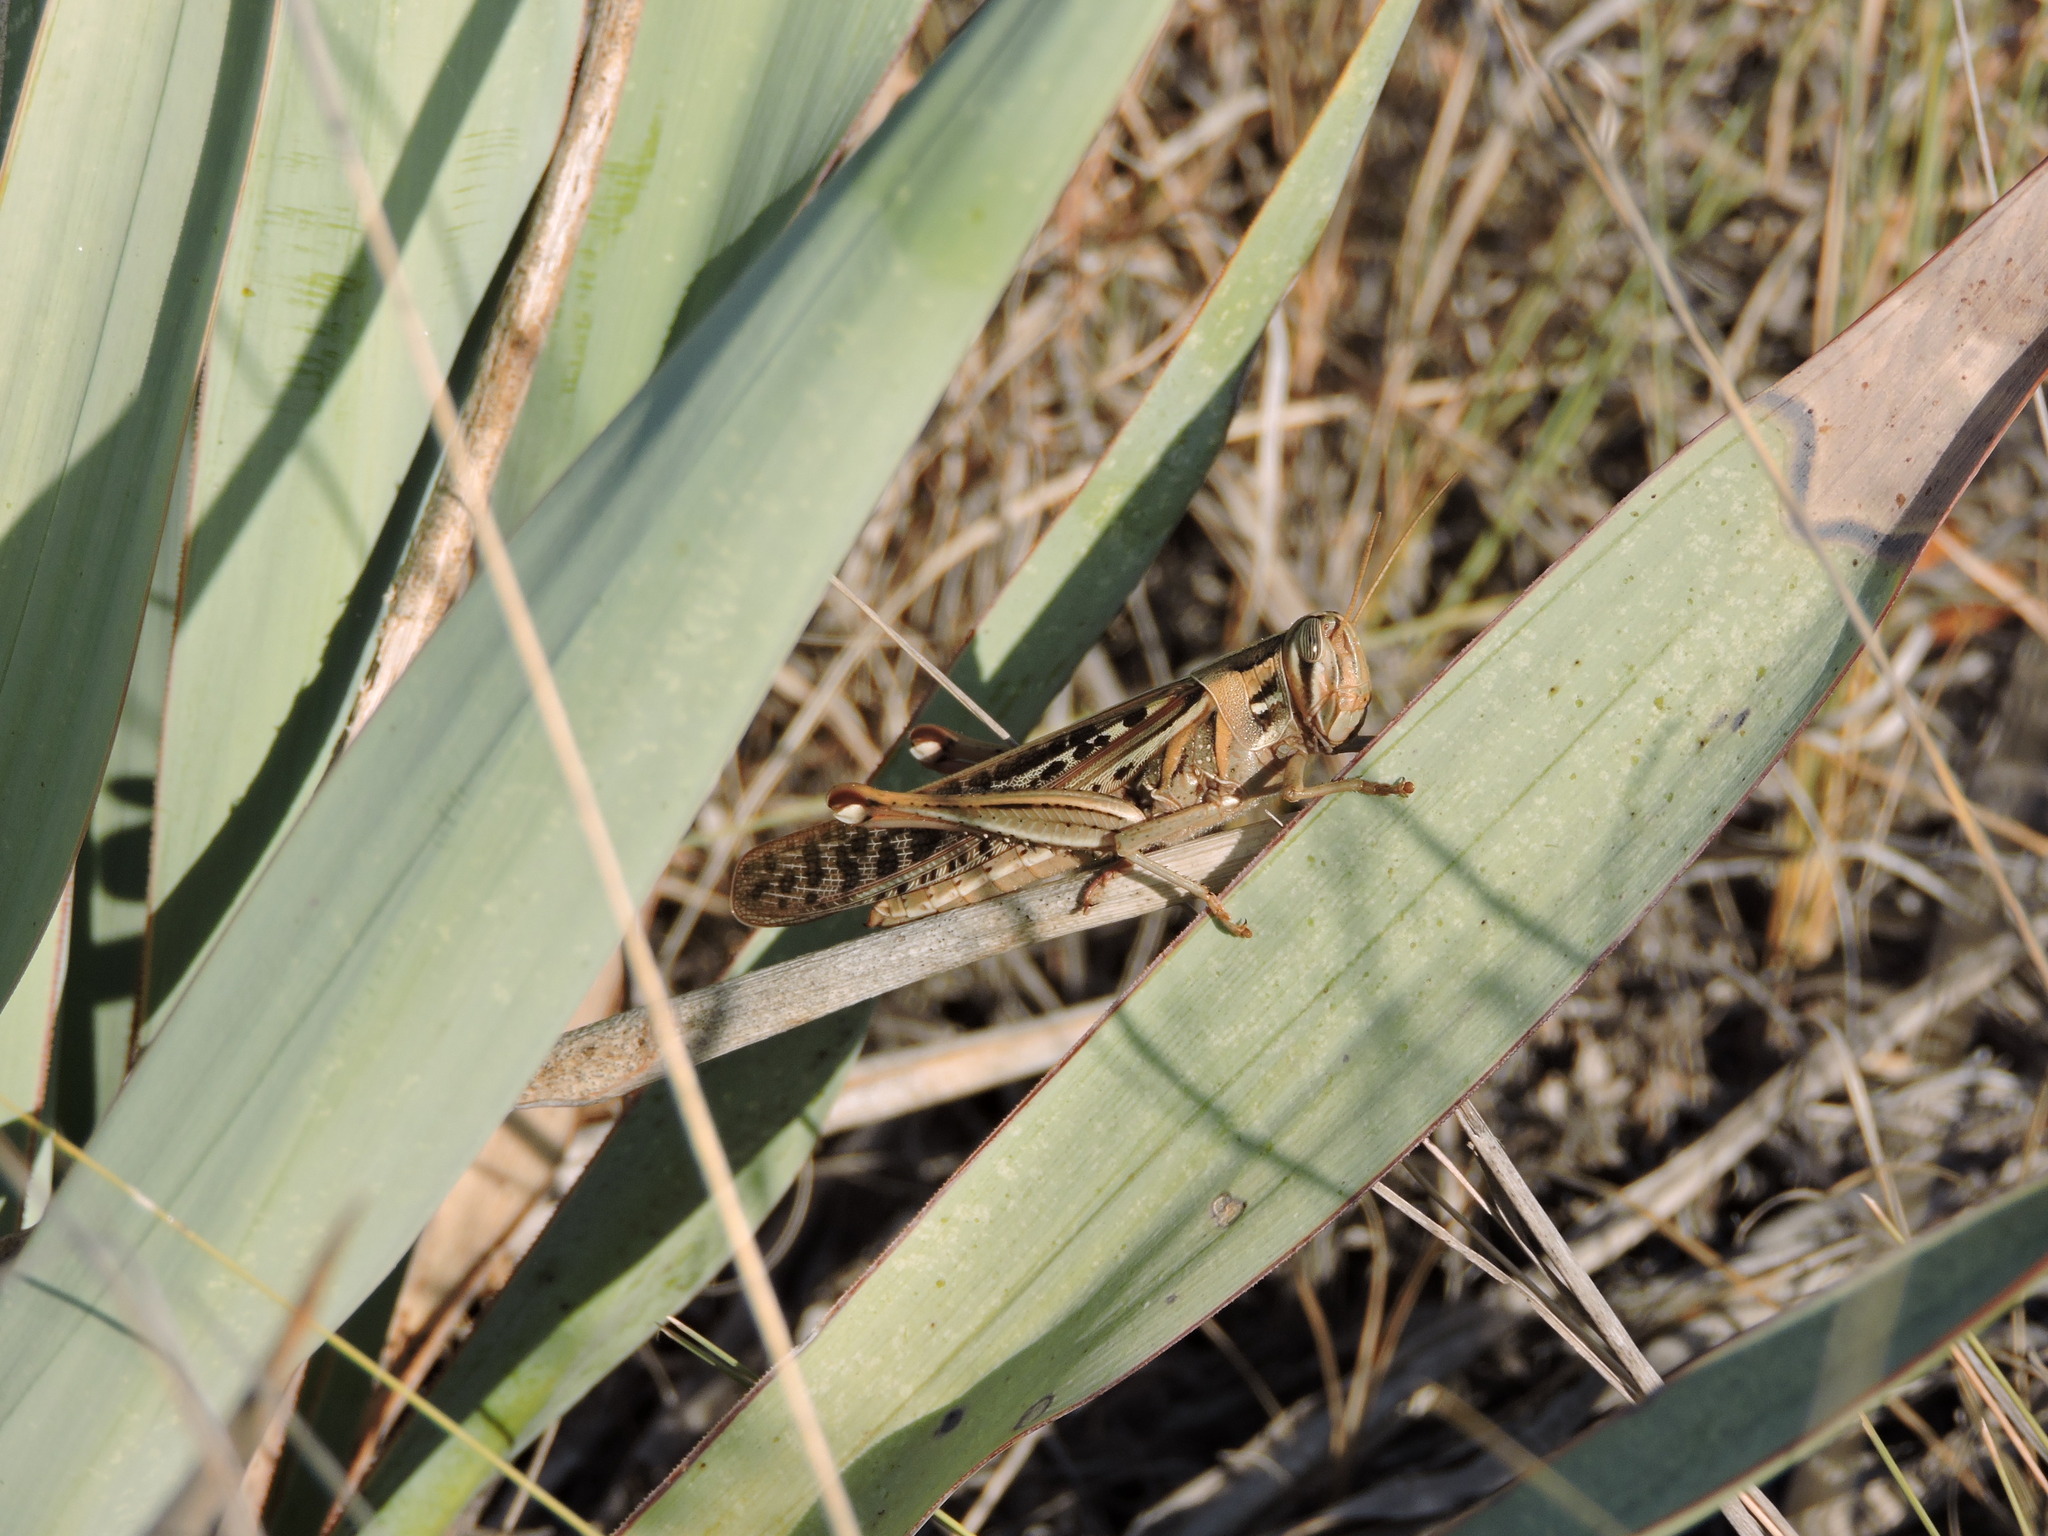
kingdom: Animalia
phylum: Arthropoda
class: Insecta
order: Orthoptera
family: Acrididae
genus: Schistocerca
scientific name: Schistocerca americana
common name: American bird locust
